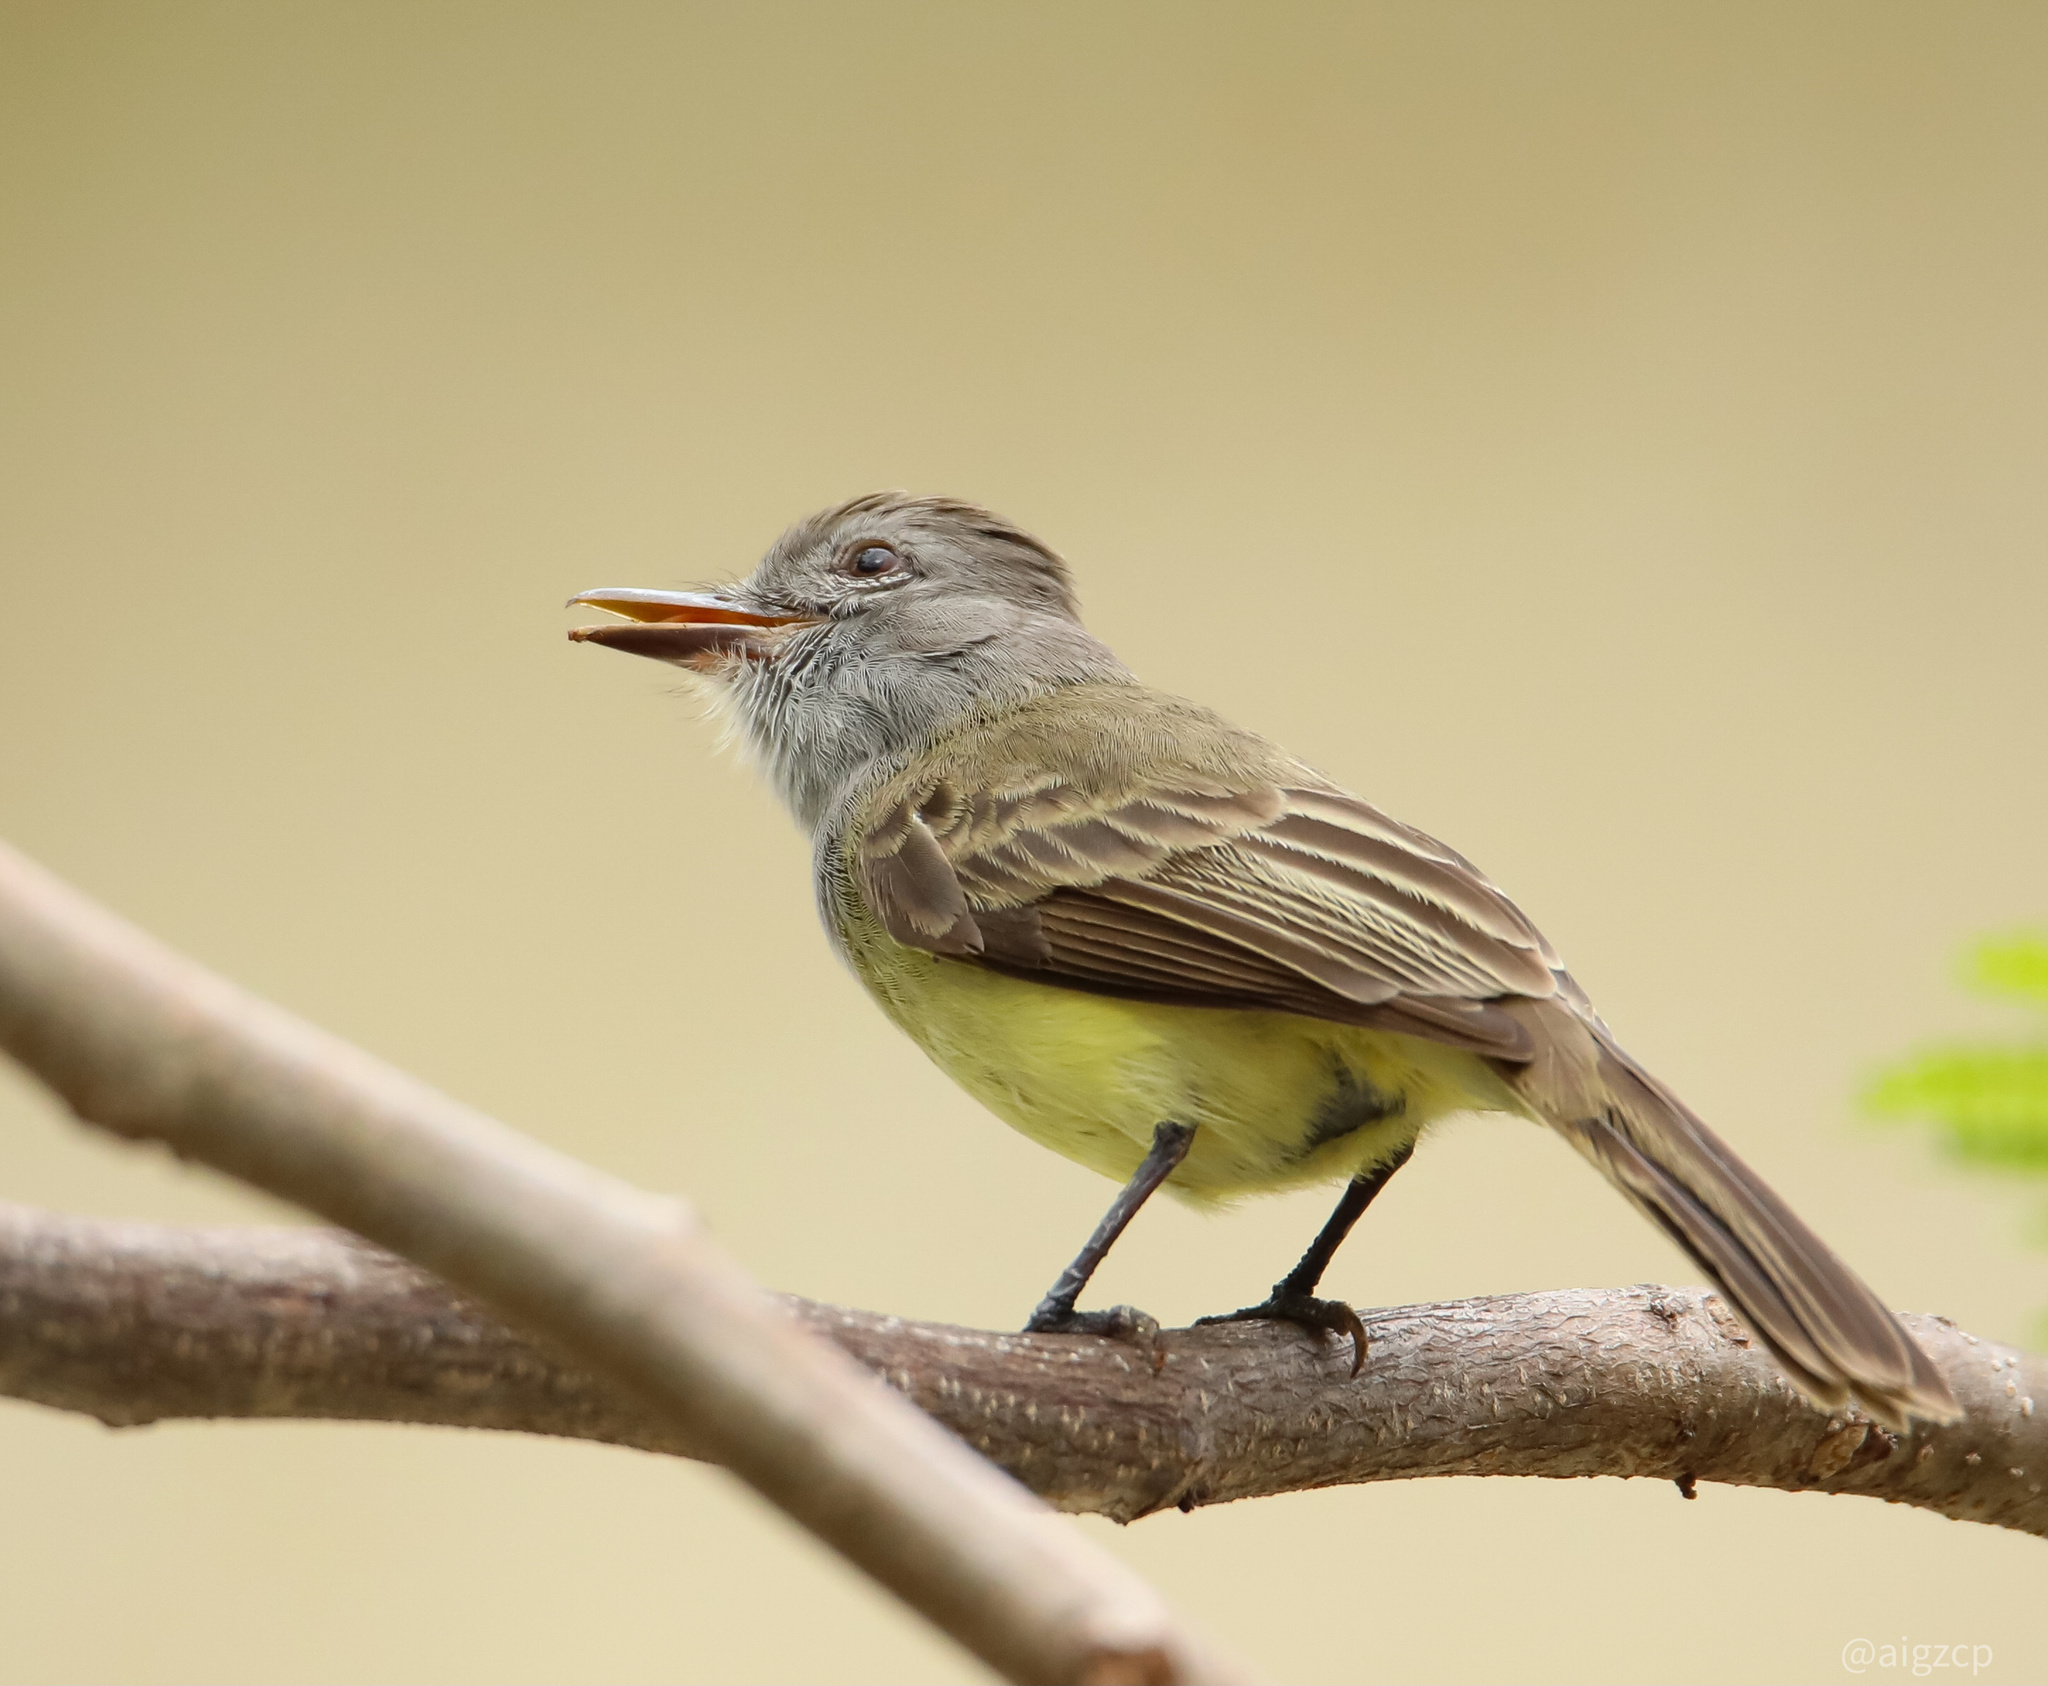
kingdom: Animalia
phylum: Chordata
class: Aves
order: Passeriformes
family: Tyrannidae
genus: Myiarchus
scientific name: Myiarchus panamensis
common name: Panama flycatcher
